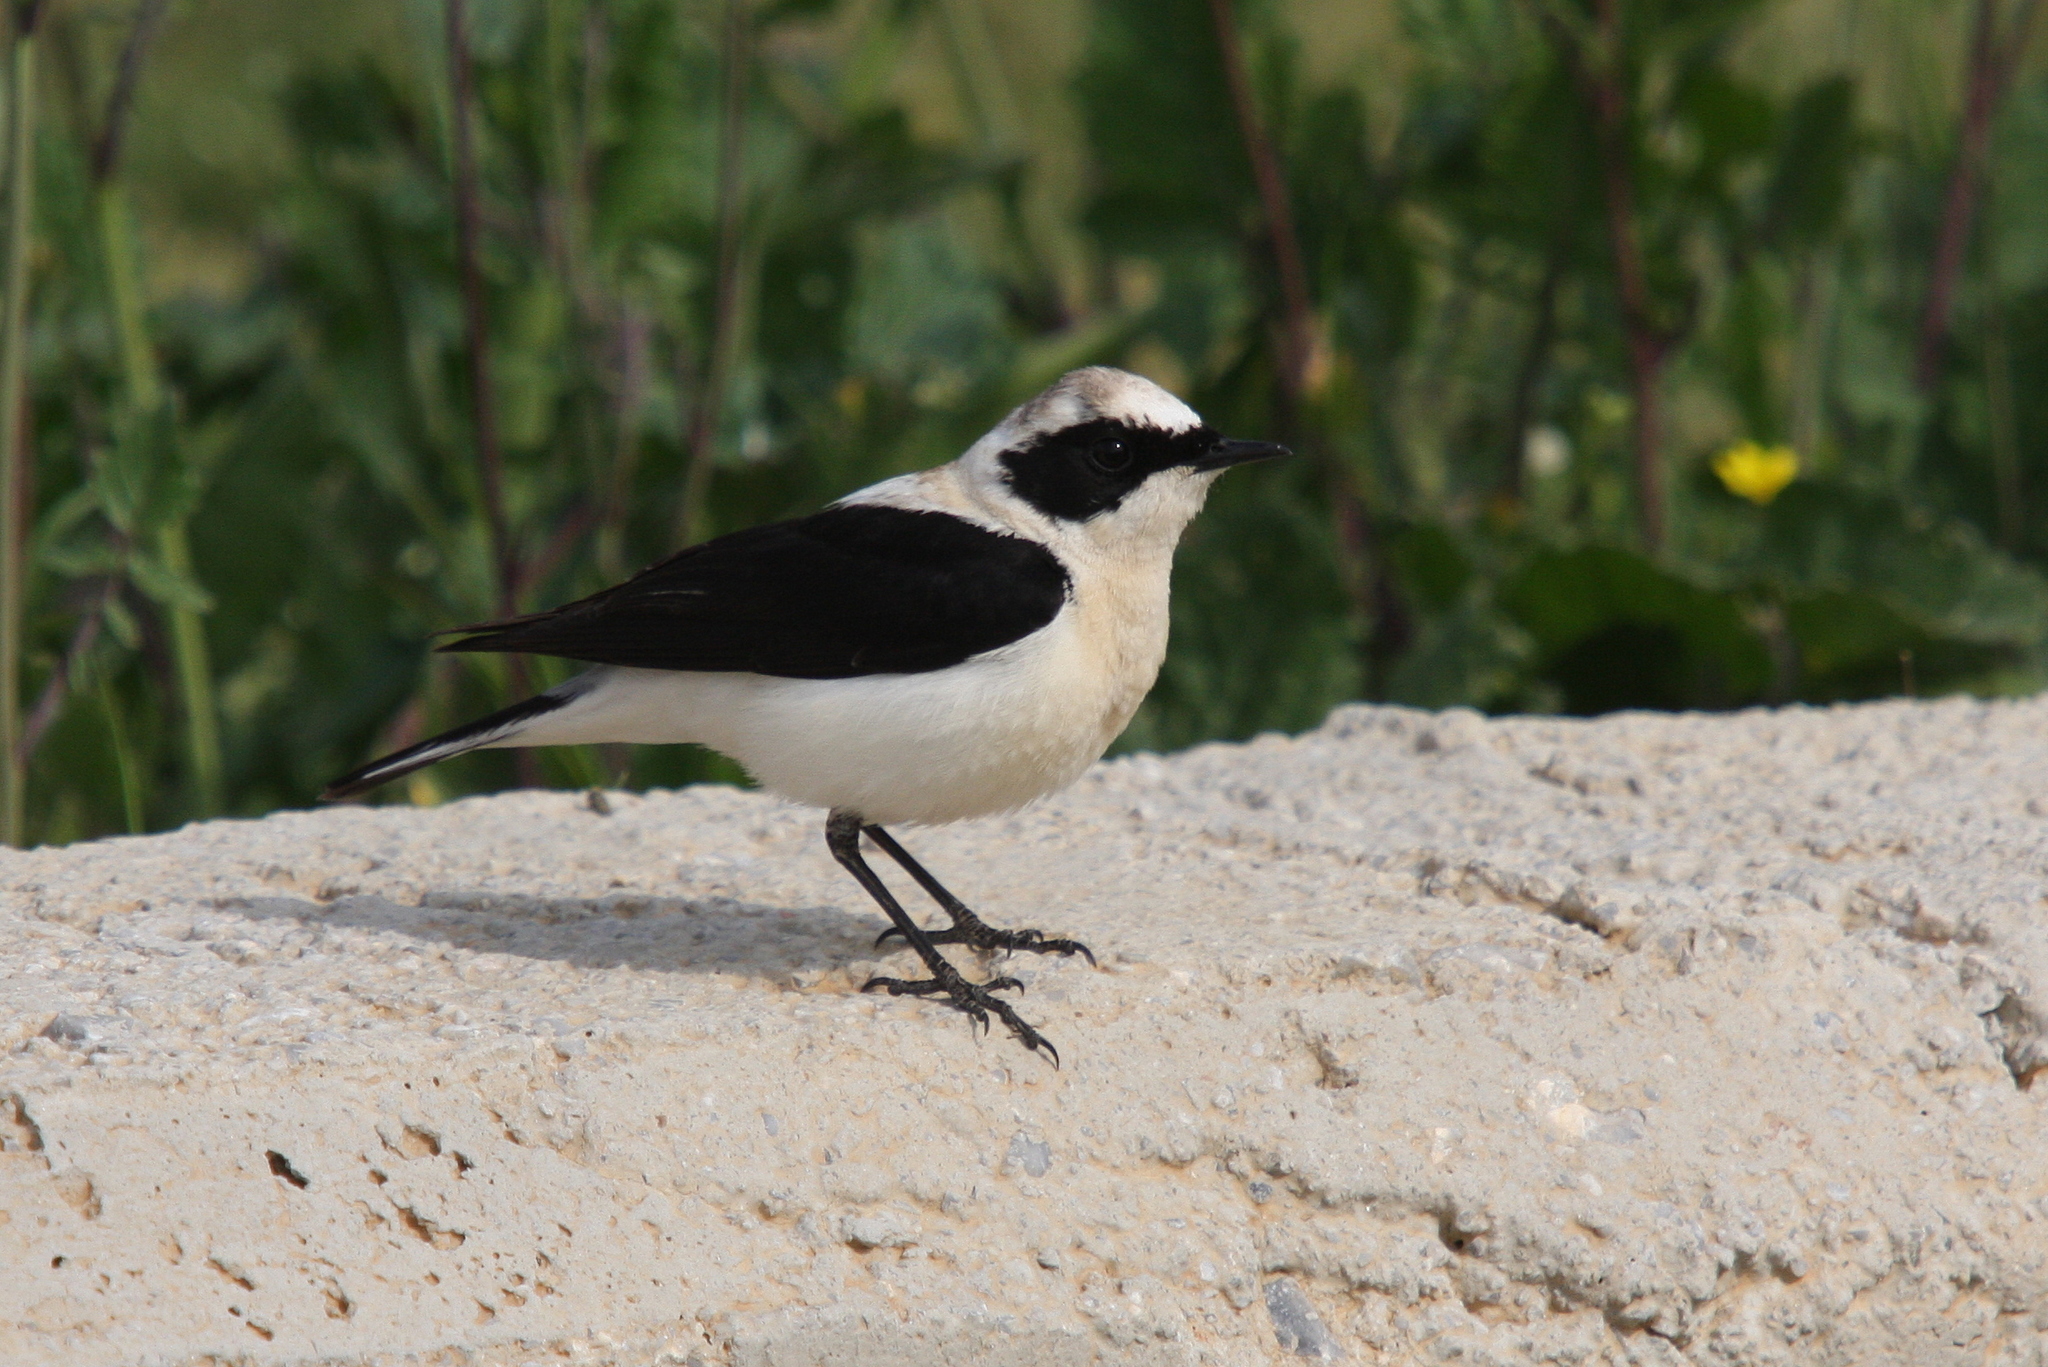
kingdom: Animalia
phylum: Chordata
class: Aves
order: Passeriformes
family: Muscicapidae
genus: Oenanthe
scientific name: Oenanthe hispanica
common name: Black-eared wheatear
